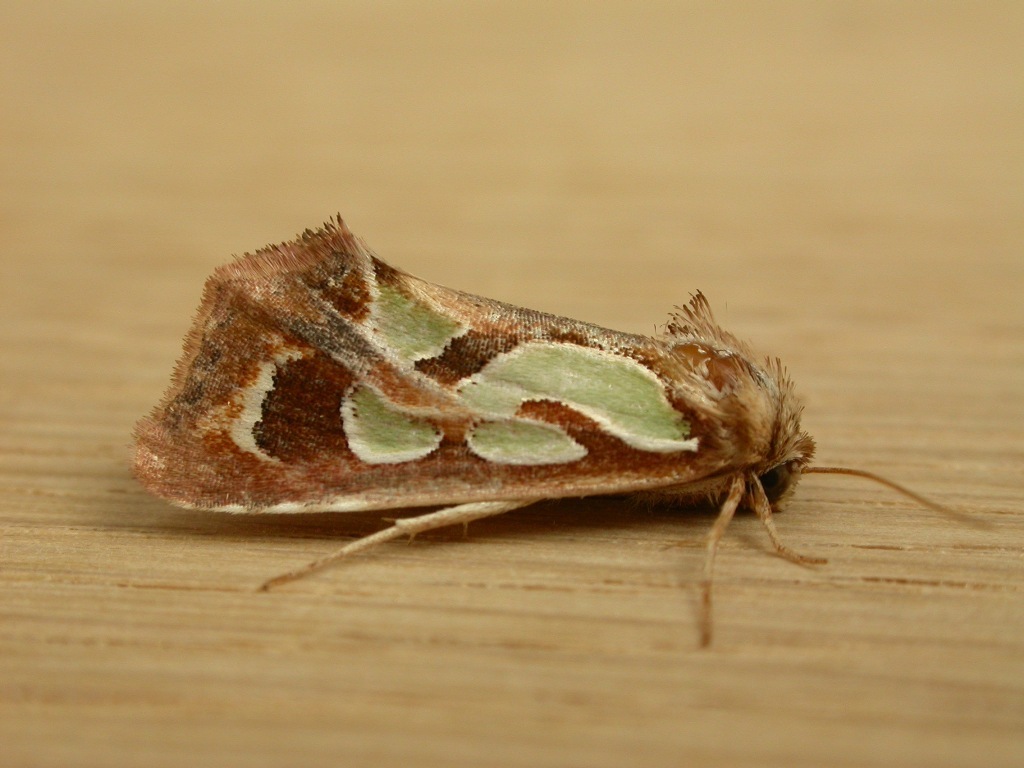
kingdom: Animalia
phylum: Arthropoda
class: Insecta
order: Lepidoptera
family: Noctuidae
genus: Cosmodes
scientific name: Cosmodes elegans
